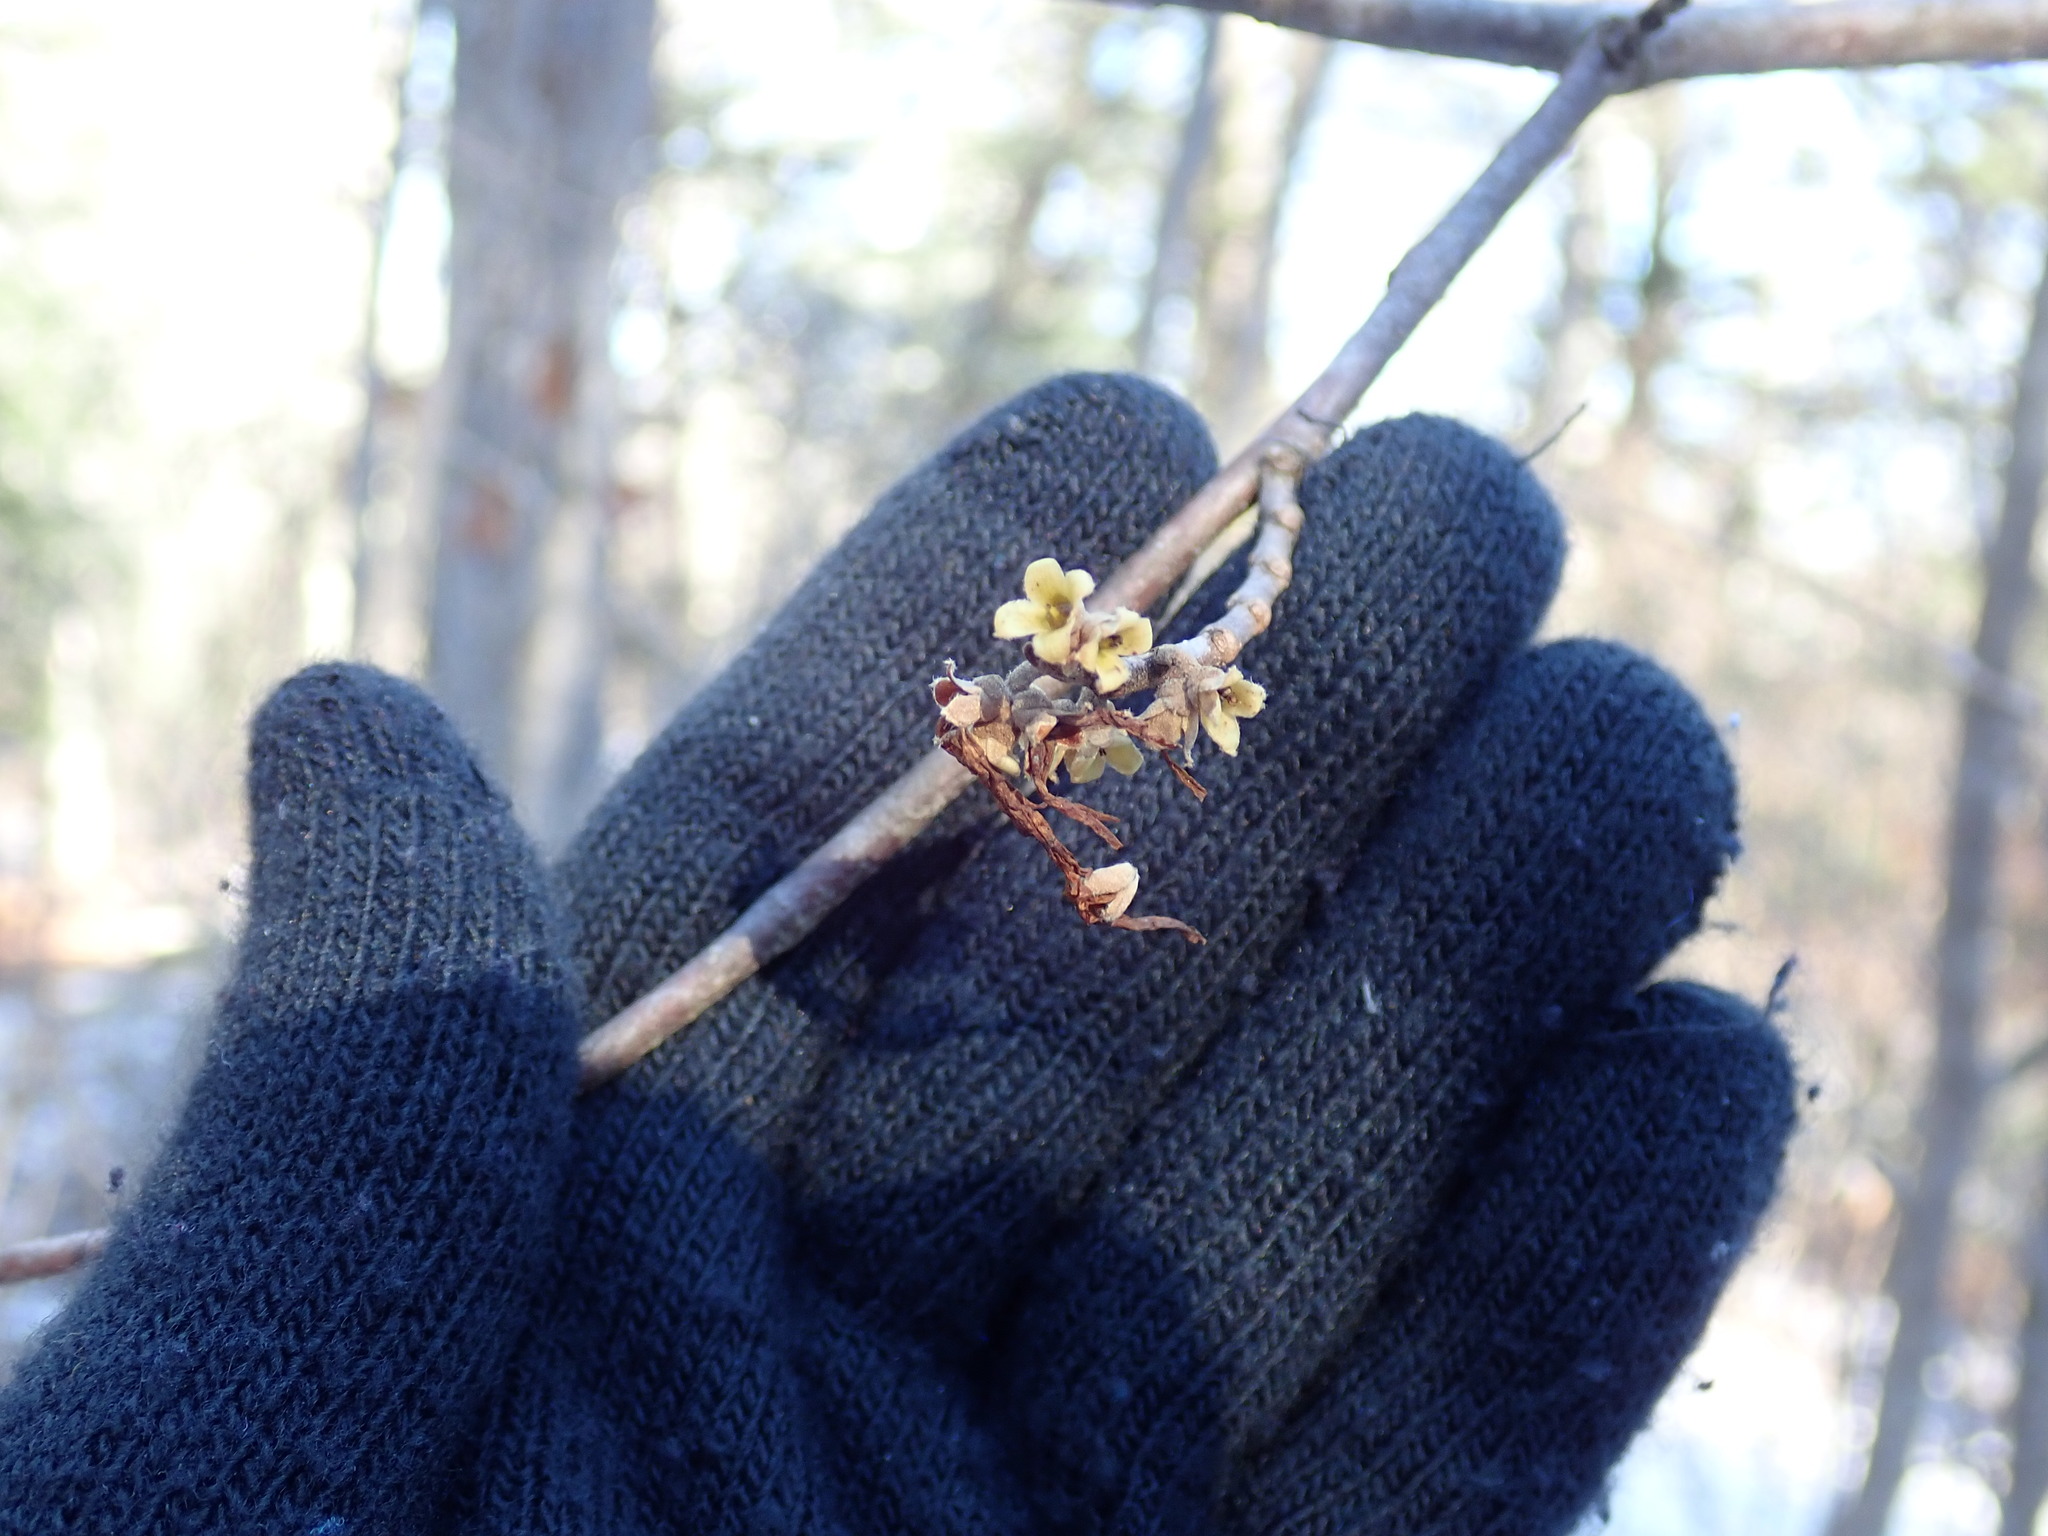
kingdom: Plantae
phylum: Tracheophyta
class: Magnoliopsida
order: Saxifragales
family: Hamamelidaceae
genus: Hamamelis
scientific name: Hamamelis virginiana
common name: Witch-hazel
